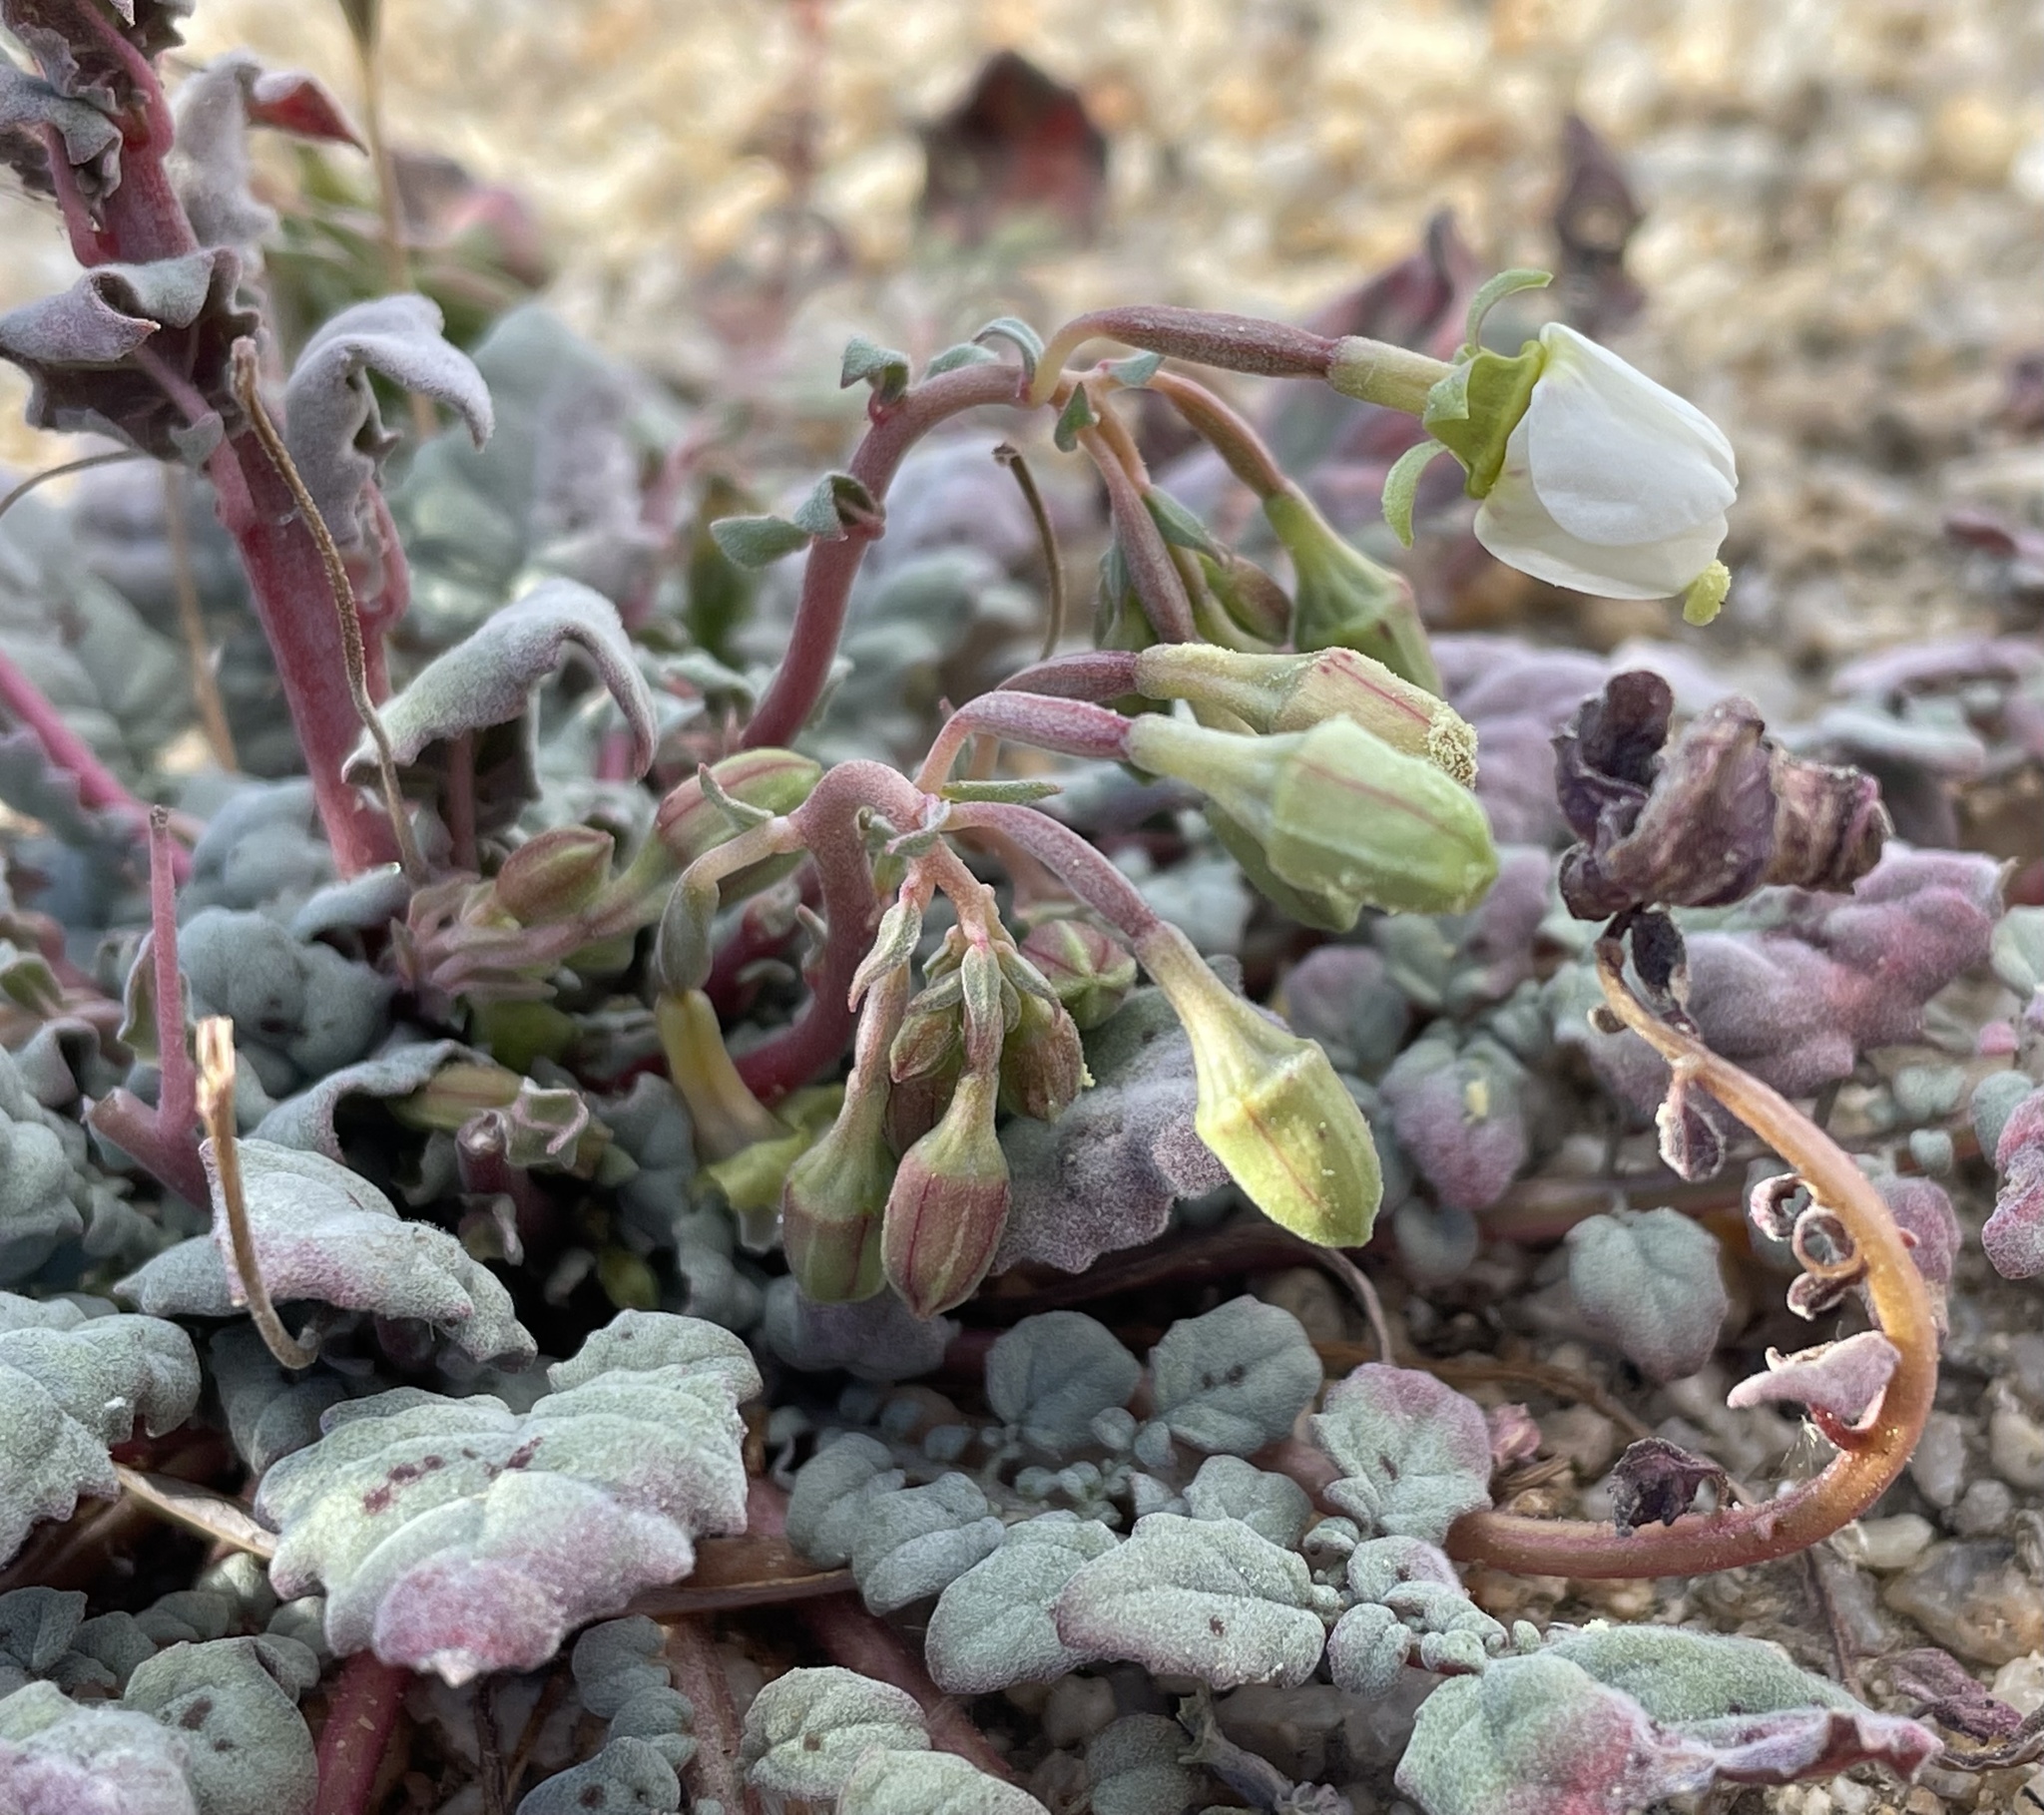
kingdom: Plantae
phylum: Tracheophyta
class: Magnoliopsida
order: Myrtales
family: Onagraceae
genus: Chylismia
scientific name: Chylismia claviformis
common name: Browneyes
